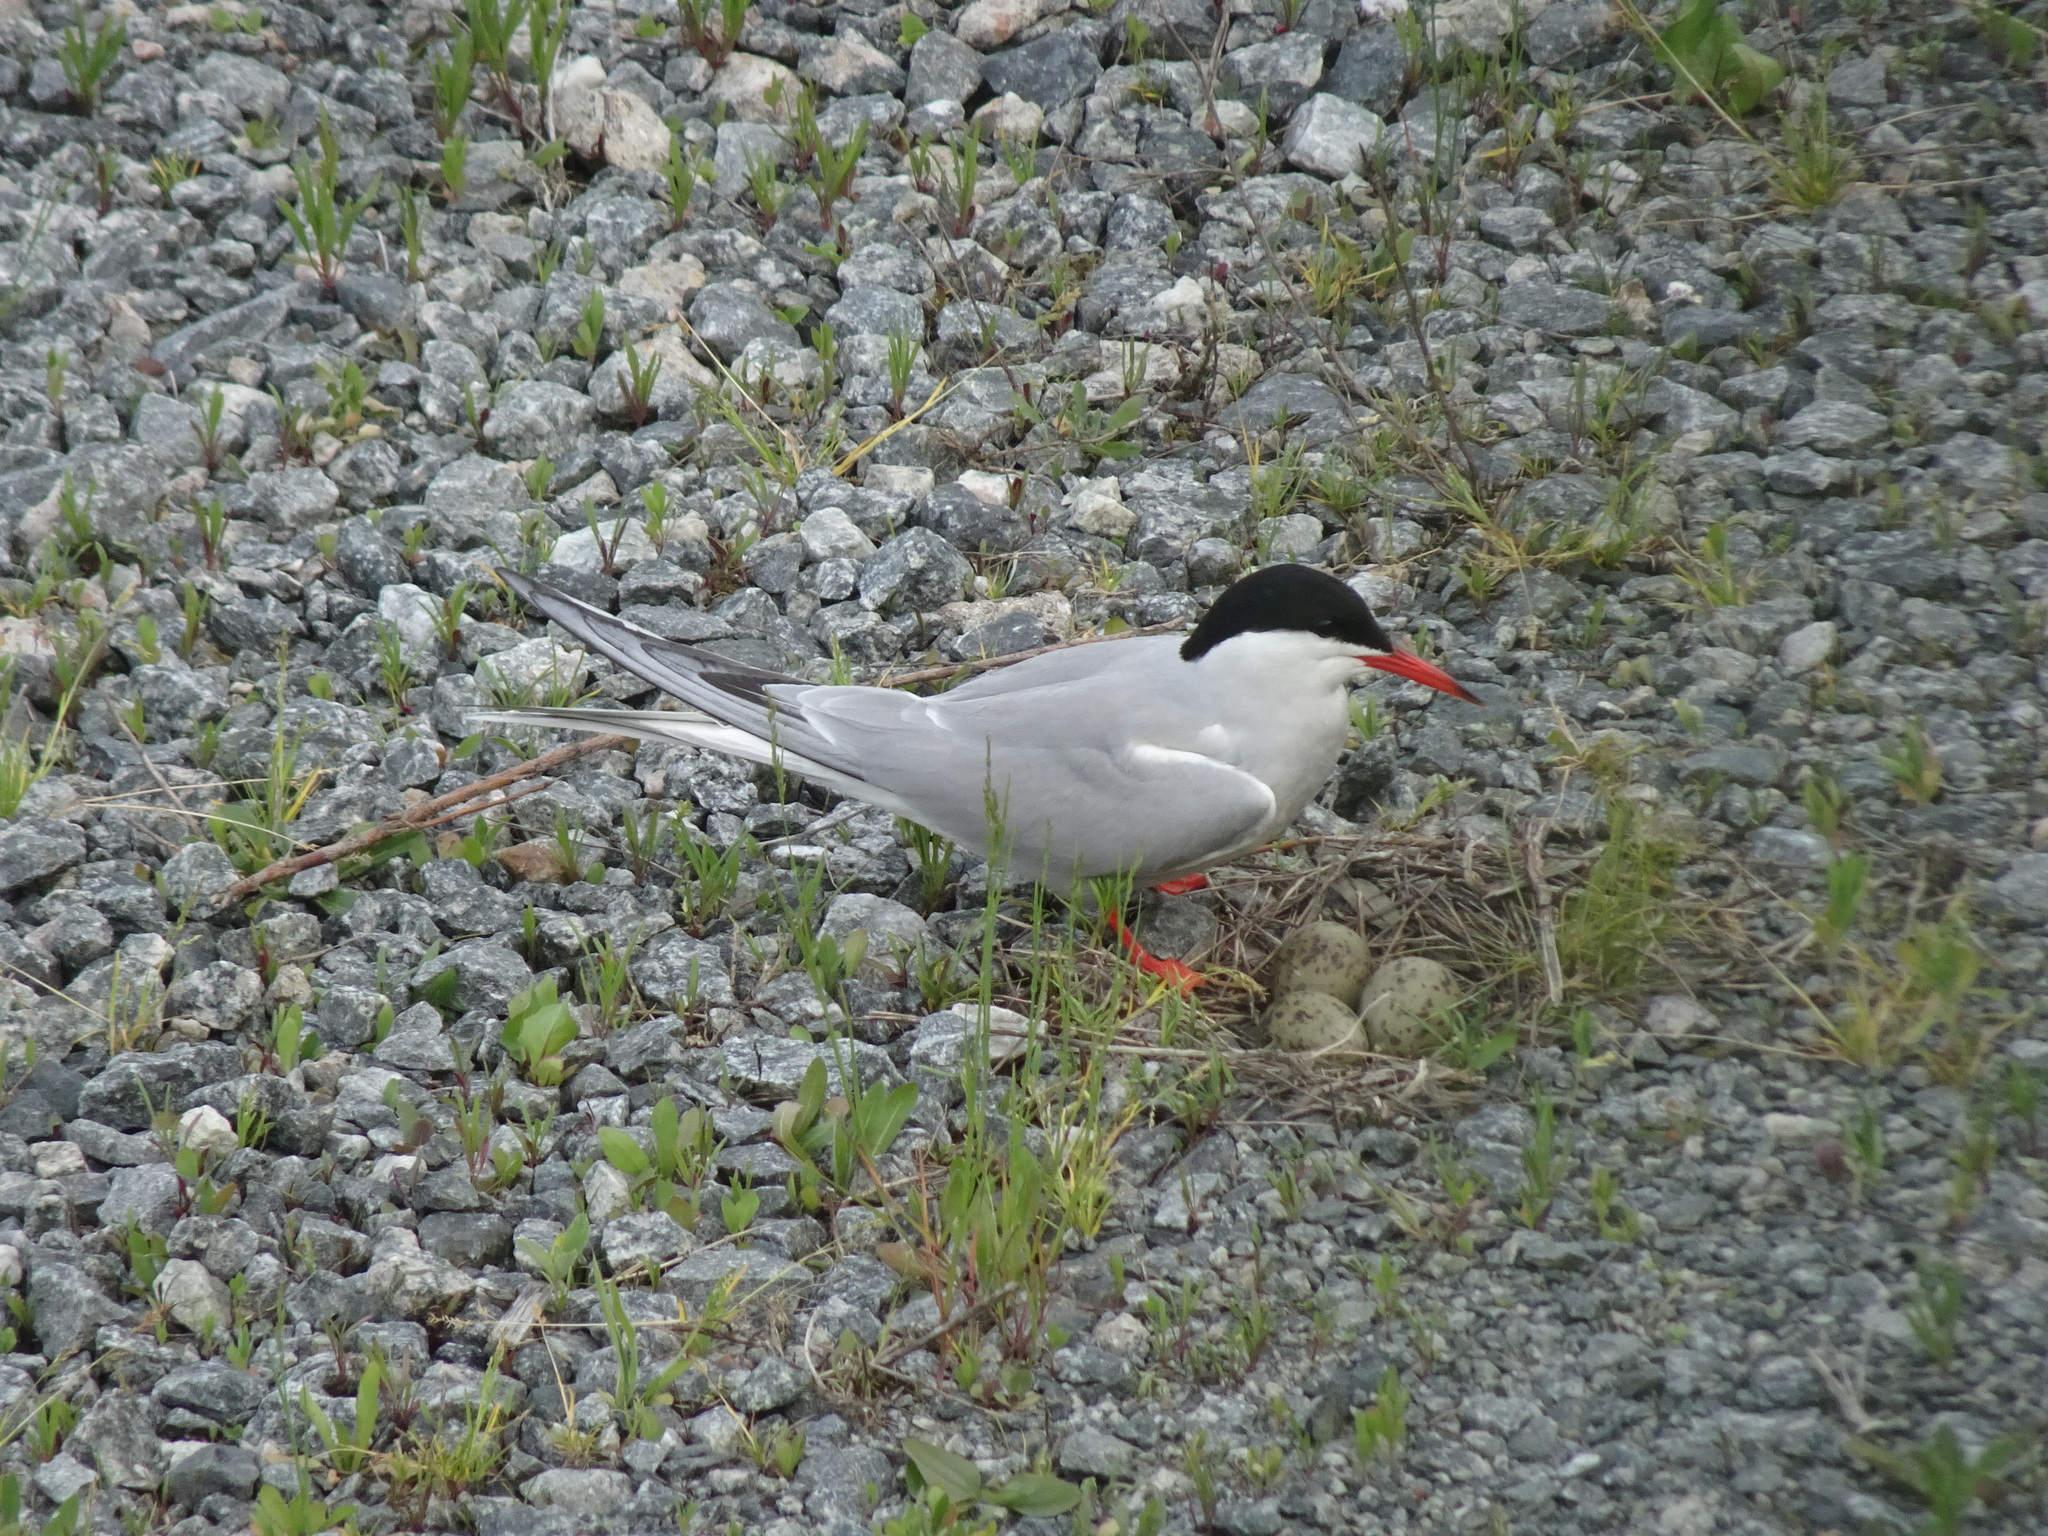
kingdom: Animalia
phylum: Chordata
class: Aves
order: Charadriiformes
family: Laridae
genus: Sterna
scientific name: Sterna hirundo
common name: Common tern
